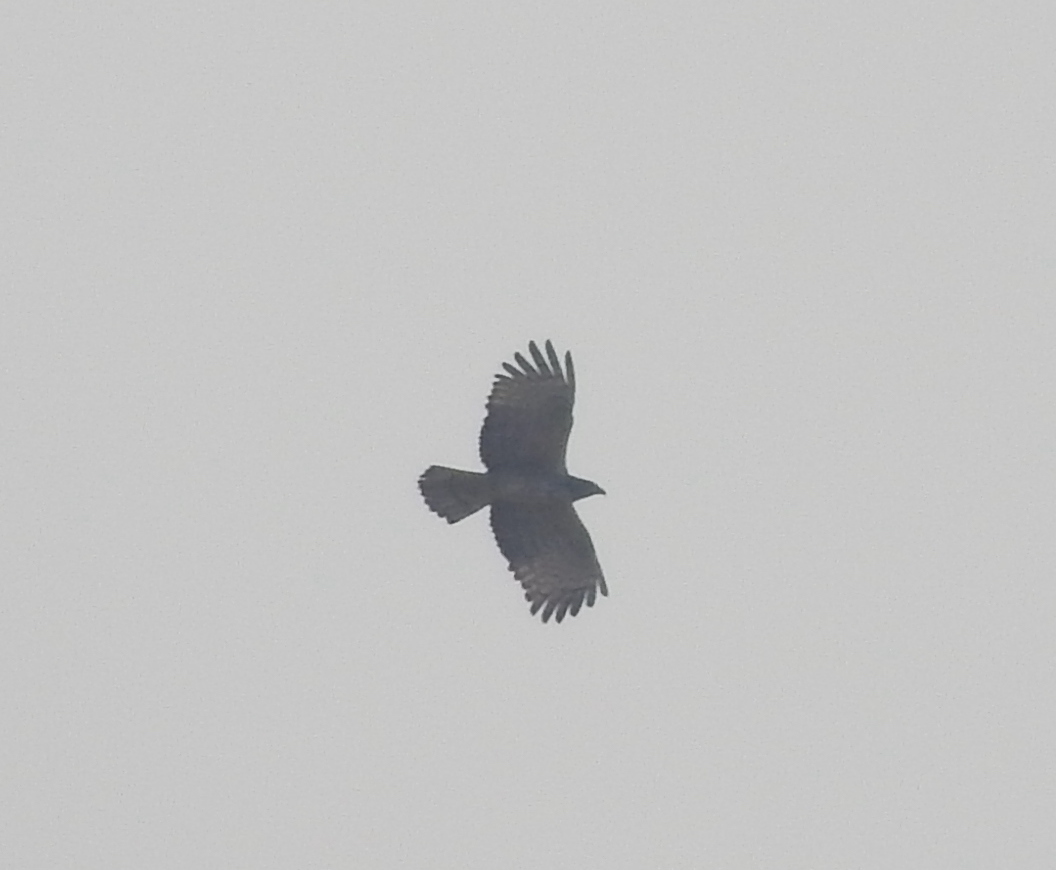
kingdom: Animalia
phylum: Chordata
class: Aves
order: Accipitriformes
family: Accipitridae
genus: Pernis
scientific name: Pernis ptilorhynchus
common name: Crested honey buzzard
